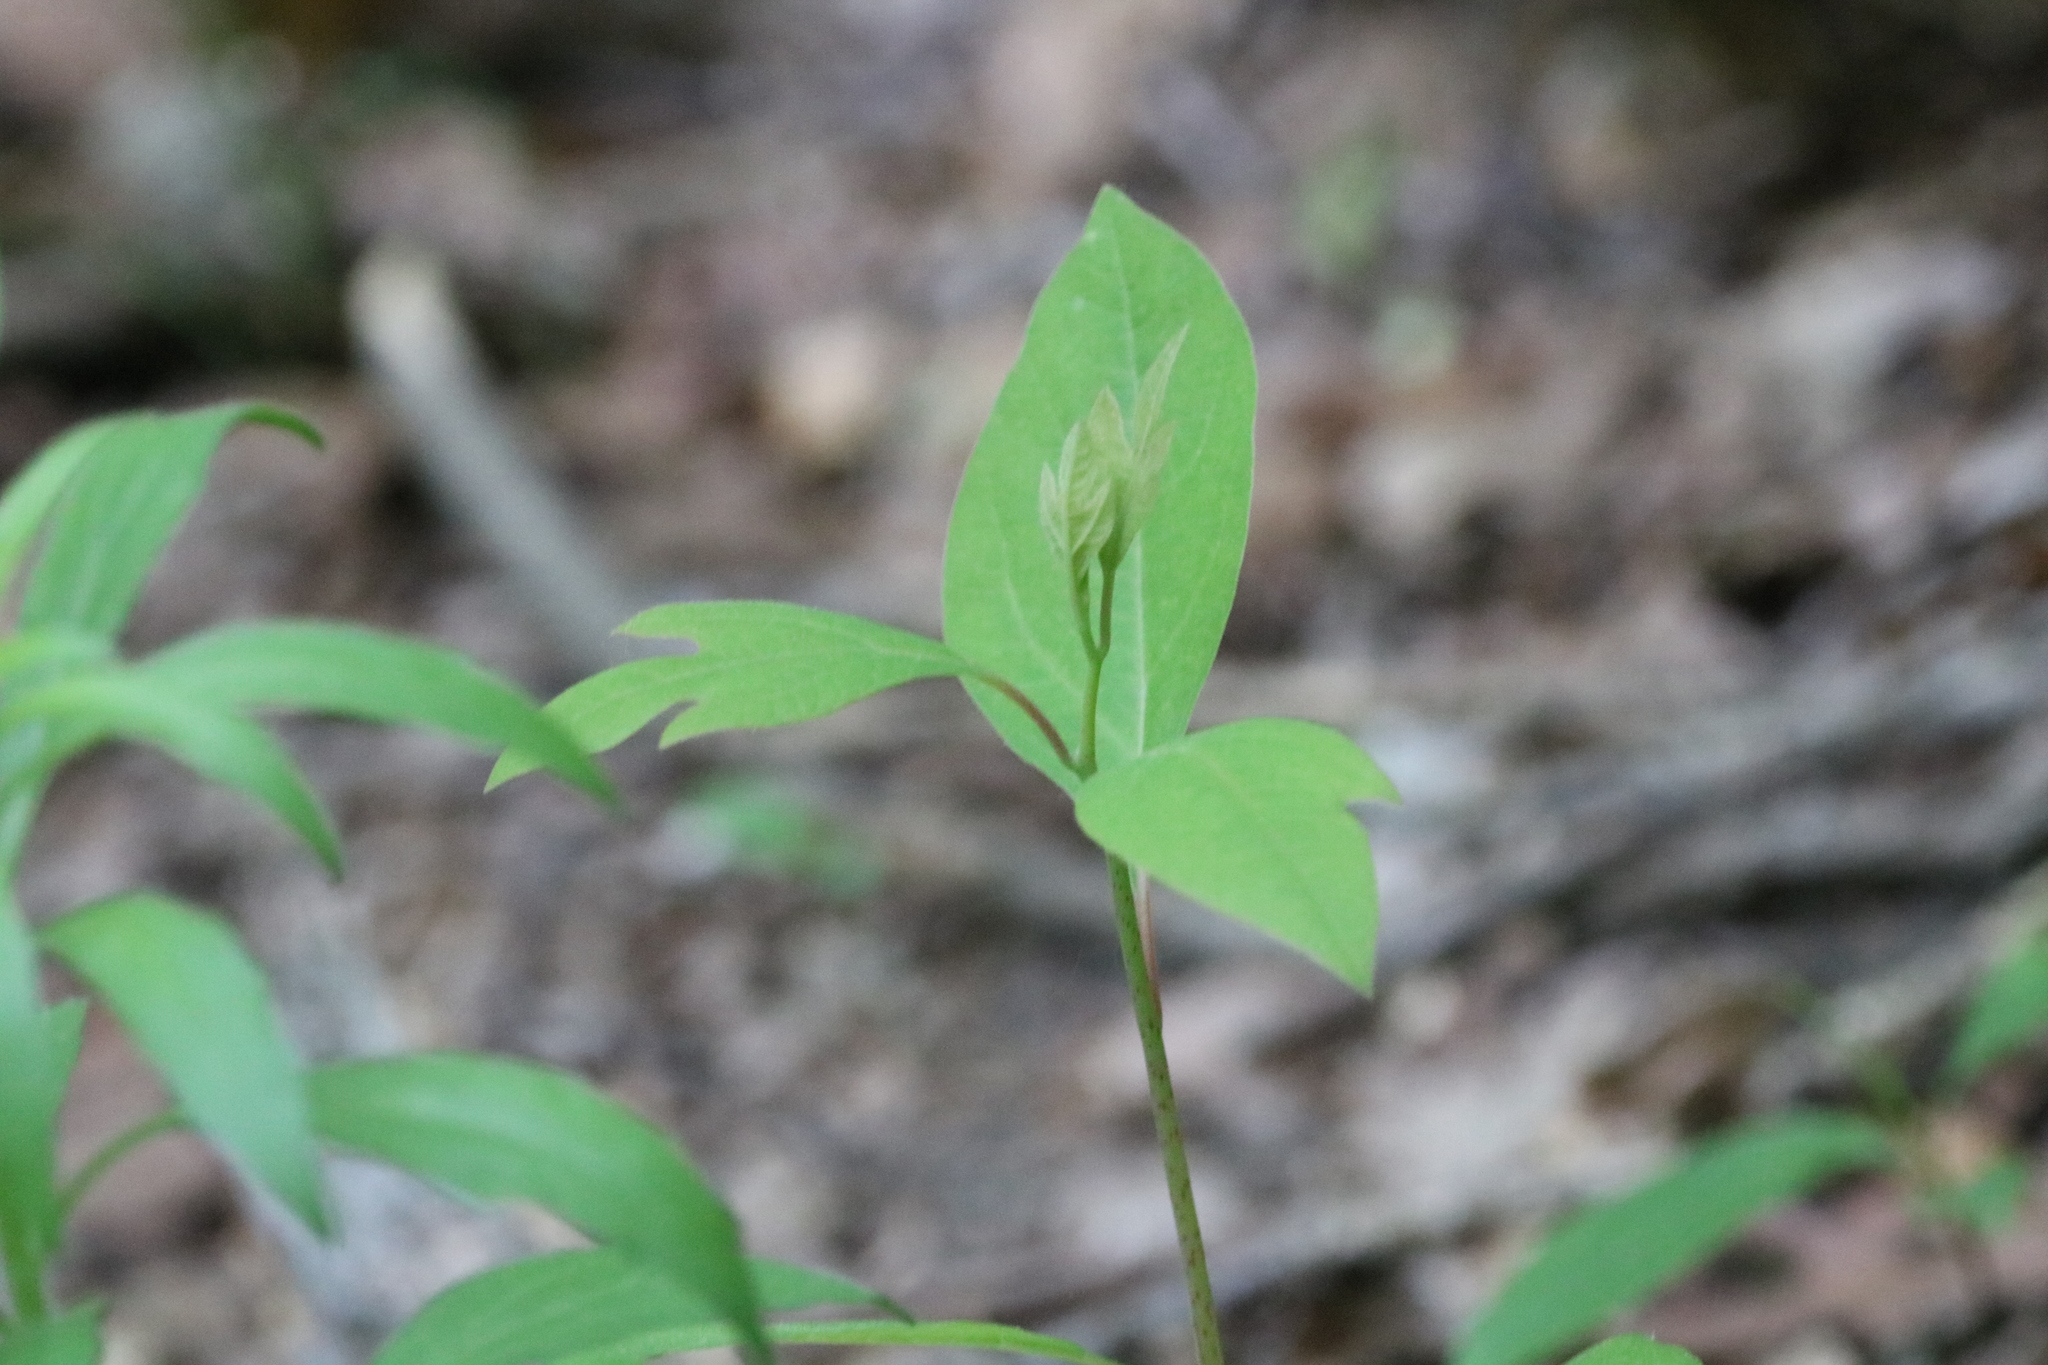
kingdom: Plantae
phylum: Tracheophyta
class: Magnoliopsida
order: Laurales
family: Lauraceae
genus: Sassafras
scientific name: Sassafras albidum
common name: Sassafras
